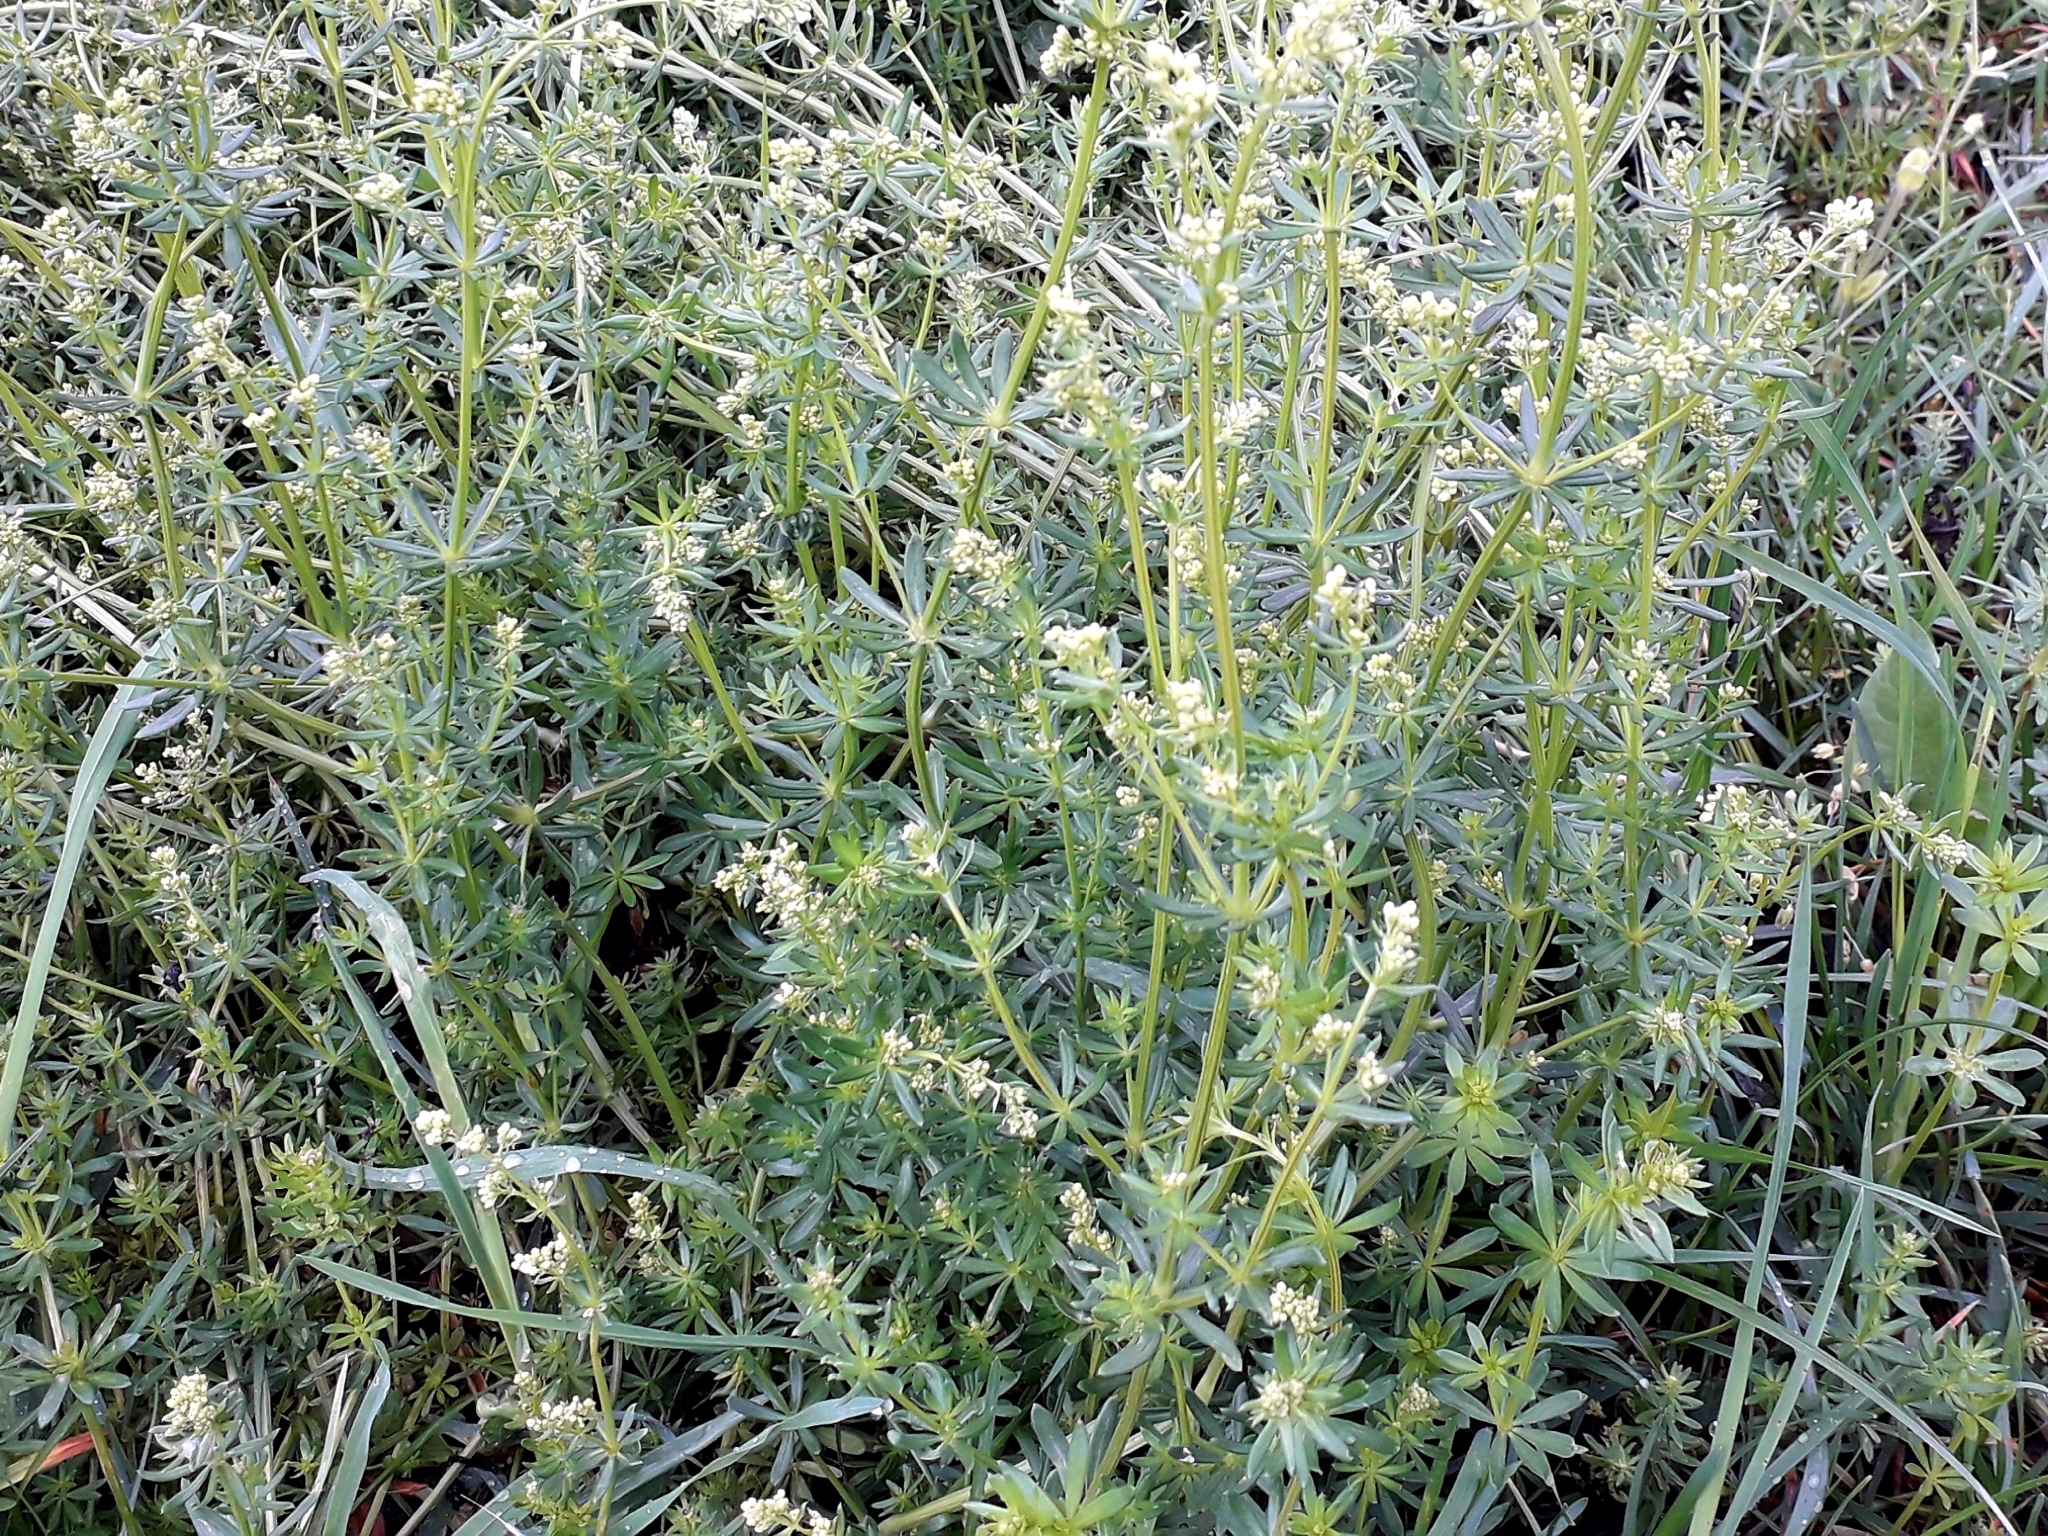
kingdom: Plantae
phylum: Tracheophyta
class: Magnoliopsida
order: Gentianales
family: Rubiaceae
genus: Galium
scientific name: Galium mollugo
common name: Hedge bedstraw
